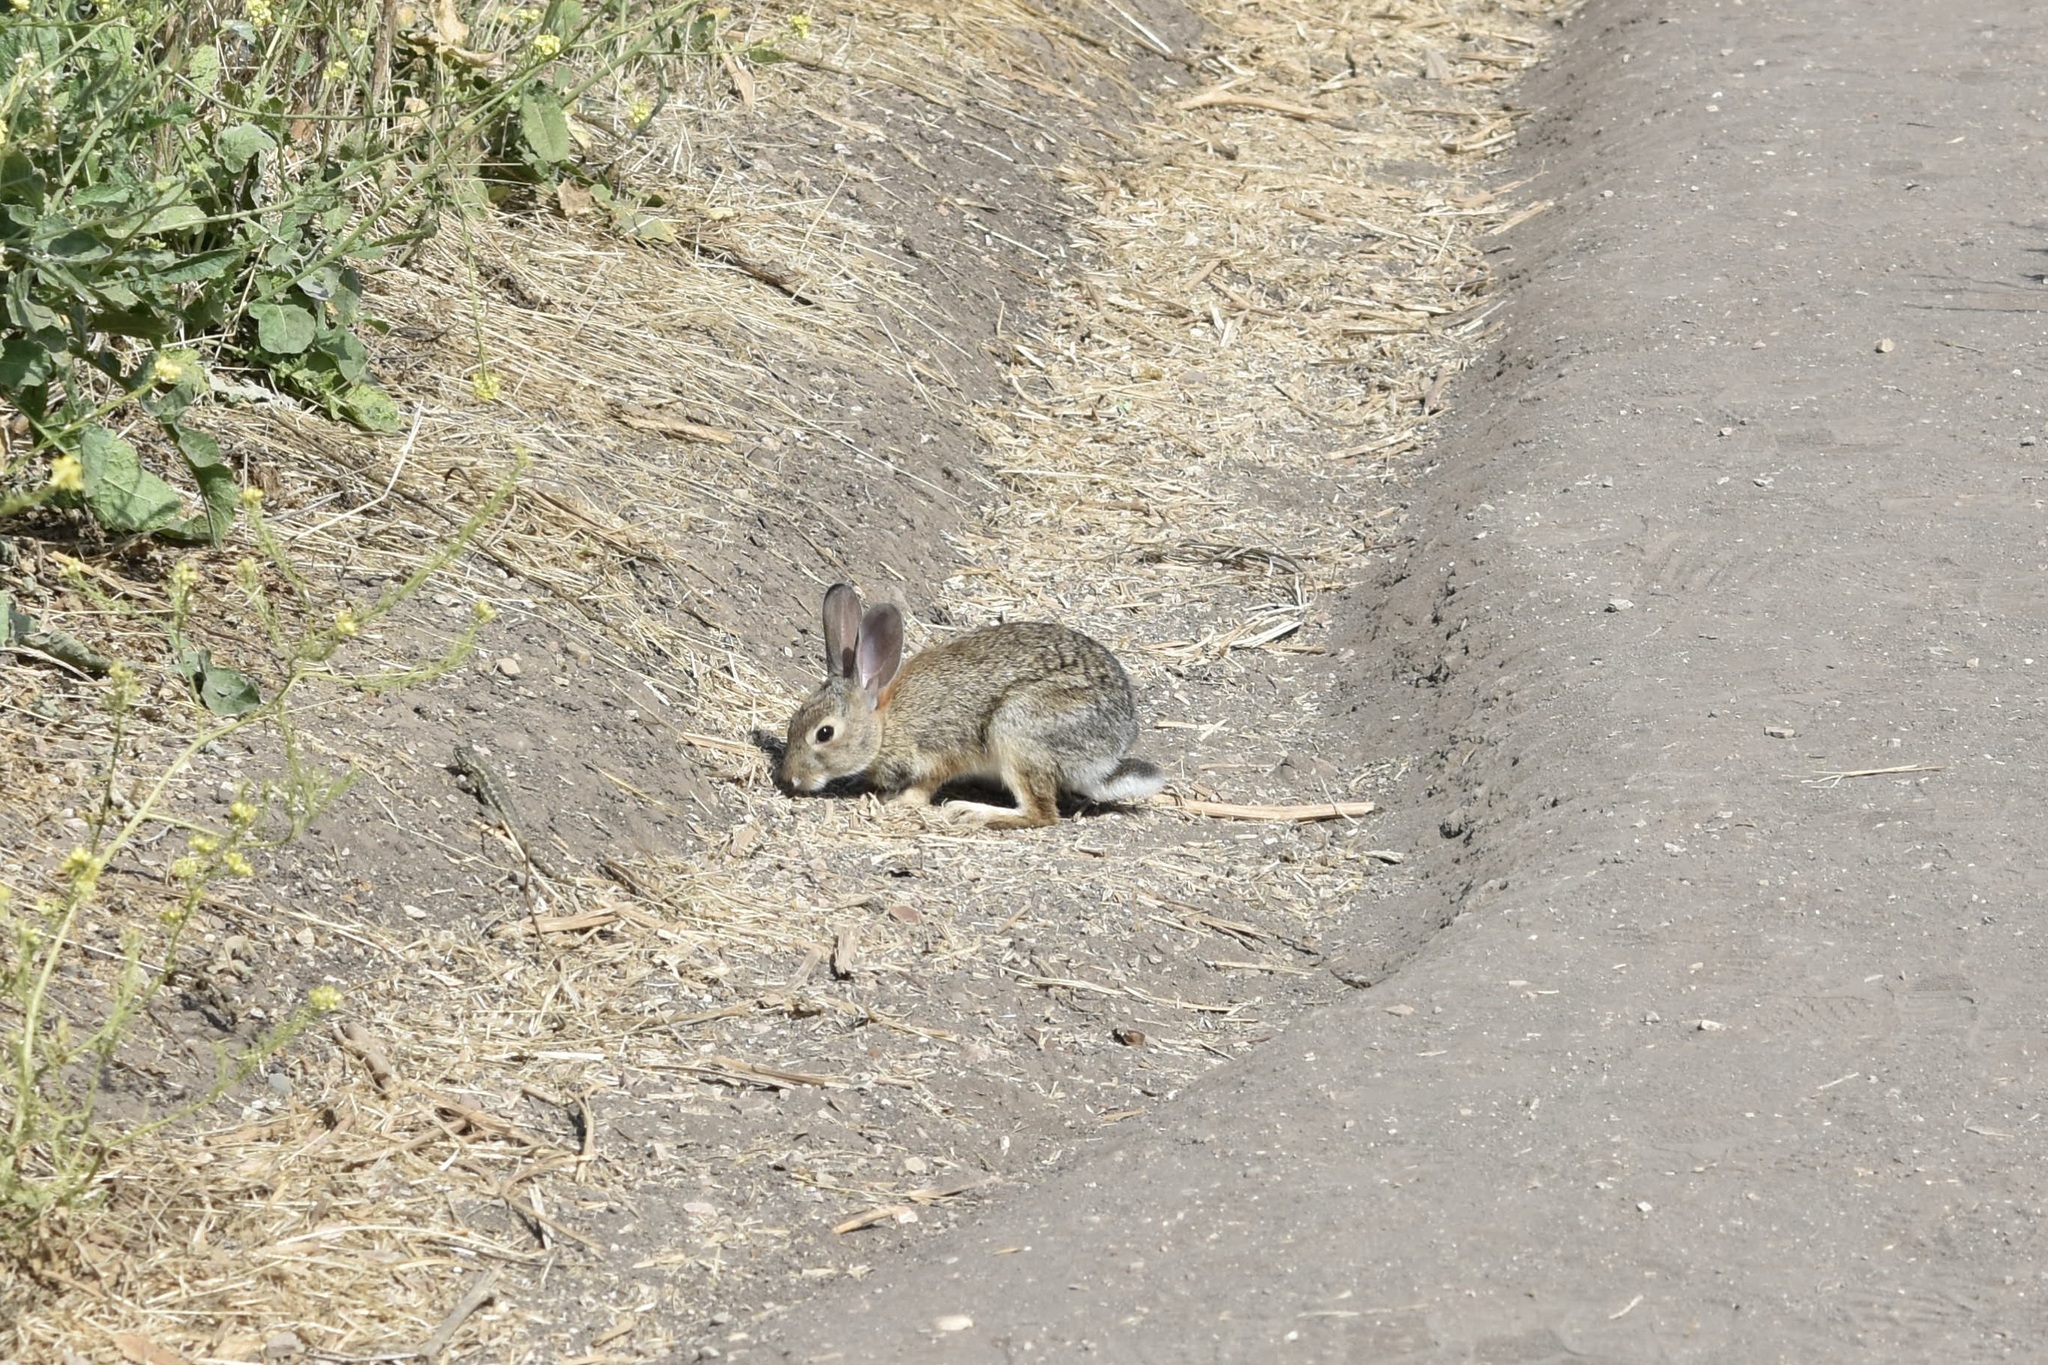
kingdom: Animalia
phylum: Chordata
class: Mammalia
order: Lagomorpha
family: Leporidae
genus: Sylvilagus
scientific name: Sylvilagus audubonii
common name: Desert cottontail
